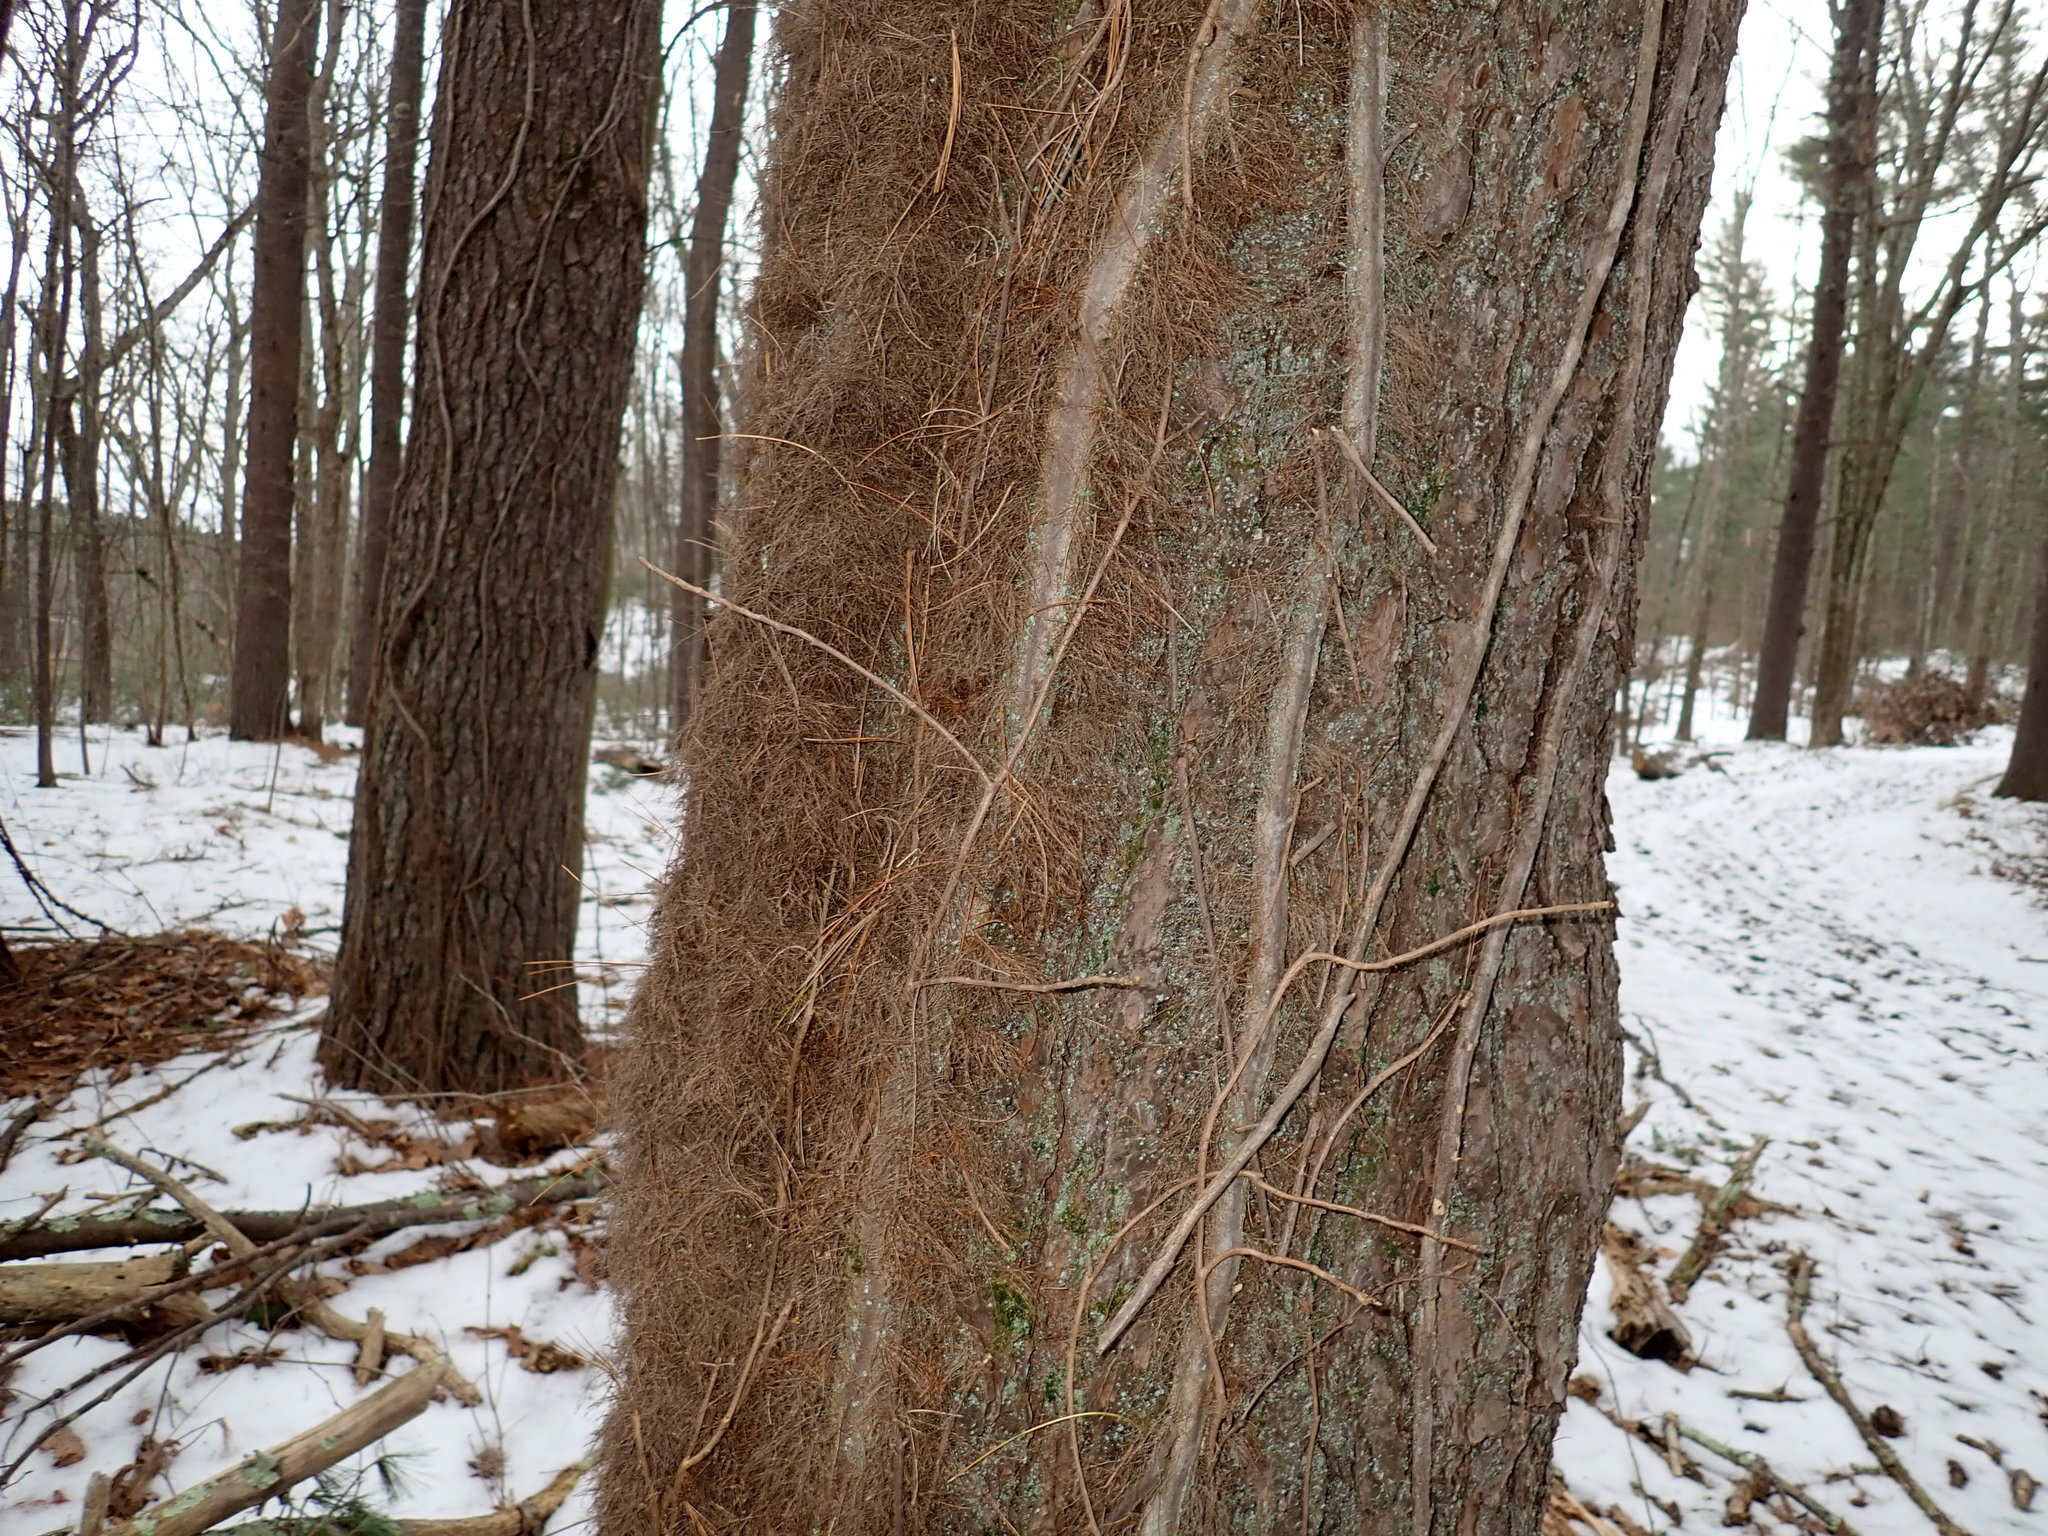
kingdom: Plantae
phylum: Tracheophyta
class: Magnoliopsida
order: Sapindales
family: Anacardiaceae
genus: Toxicodendron
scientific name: Toxicodendron radicans
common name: Poison ivy
